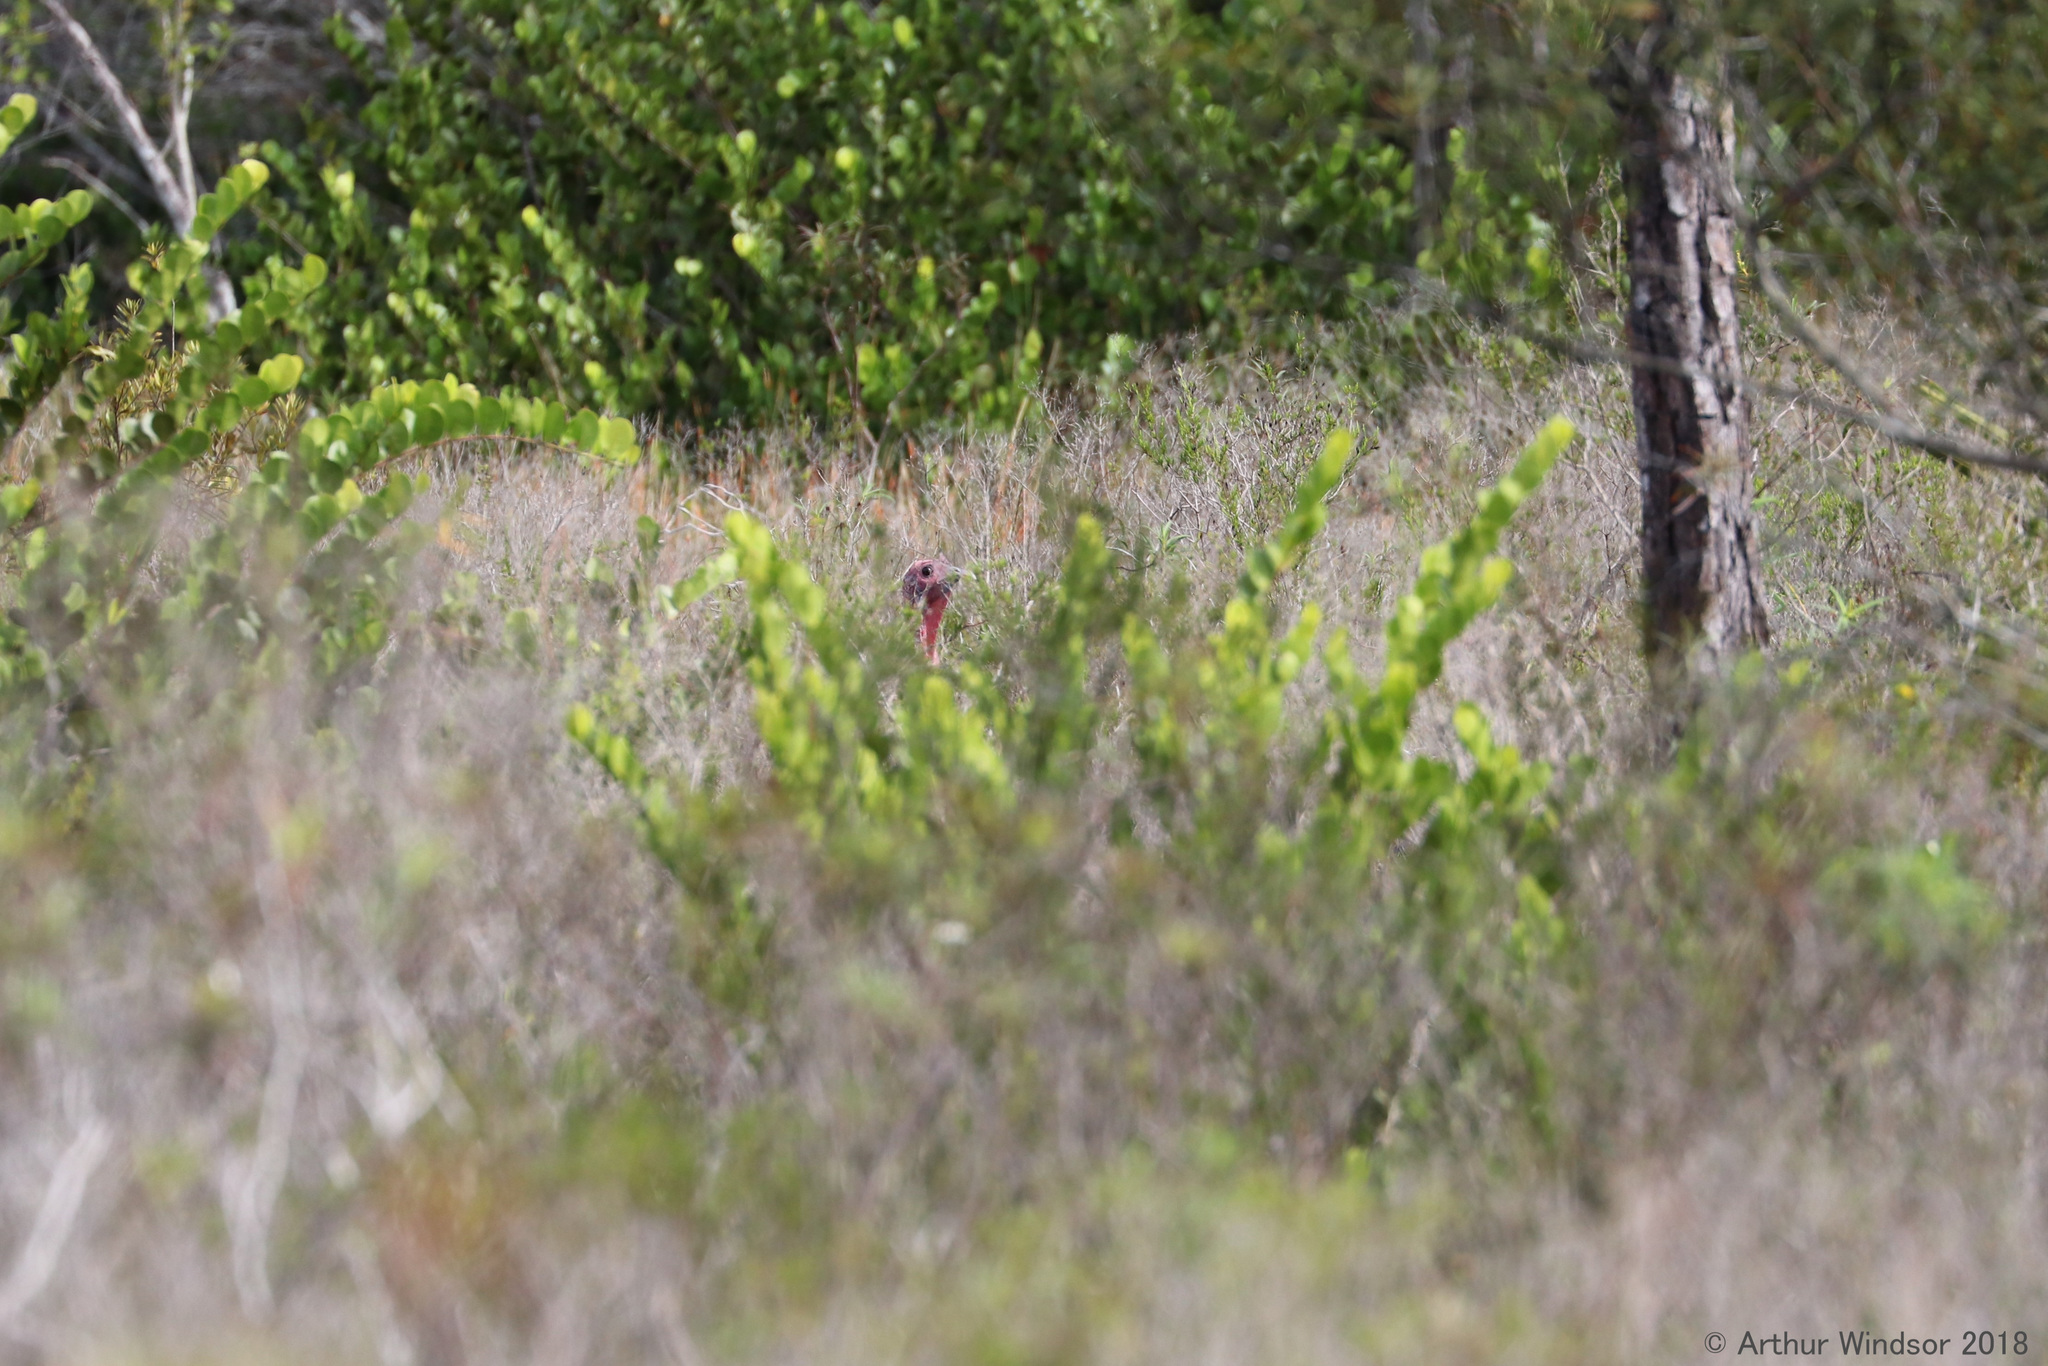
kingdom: Animalia
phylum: Chordata
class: Aves
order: Galliformes
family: Phasianidae
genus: Meleagris
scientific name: Meleagris gallopavo
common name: Wild turkey
